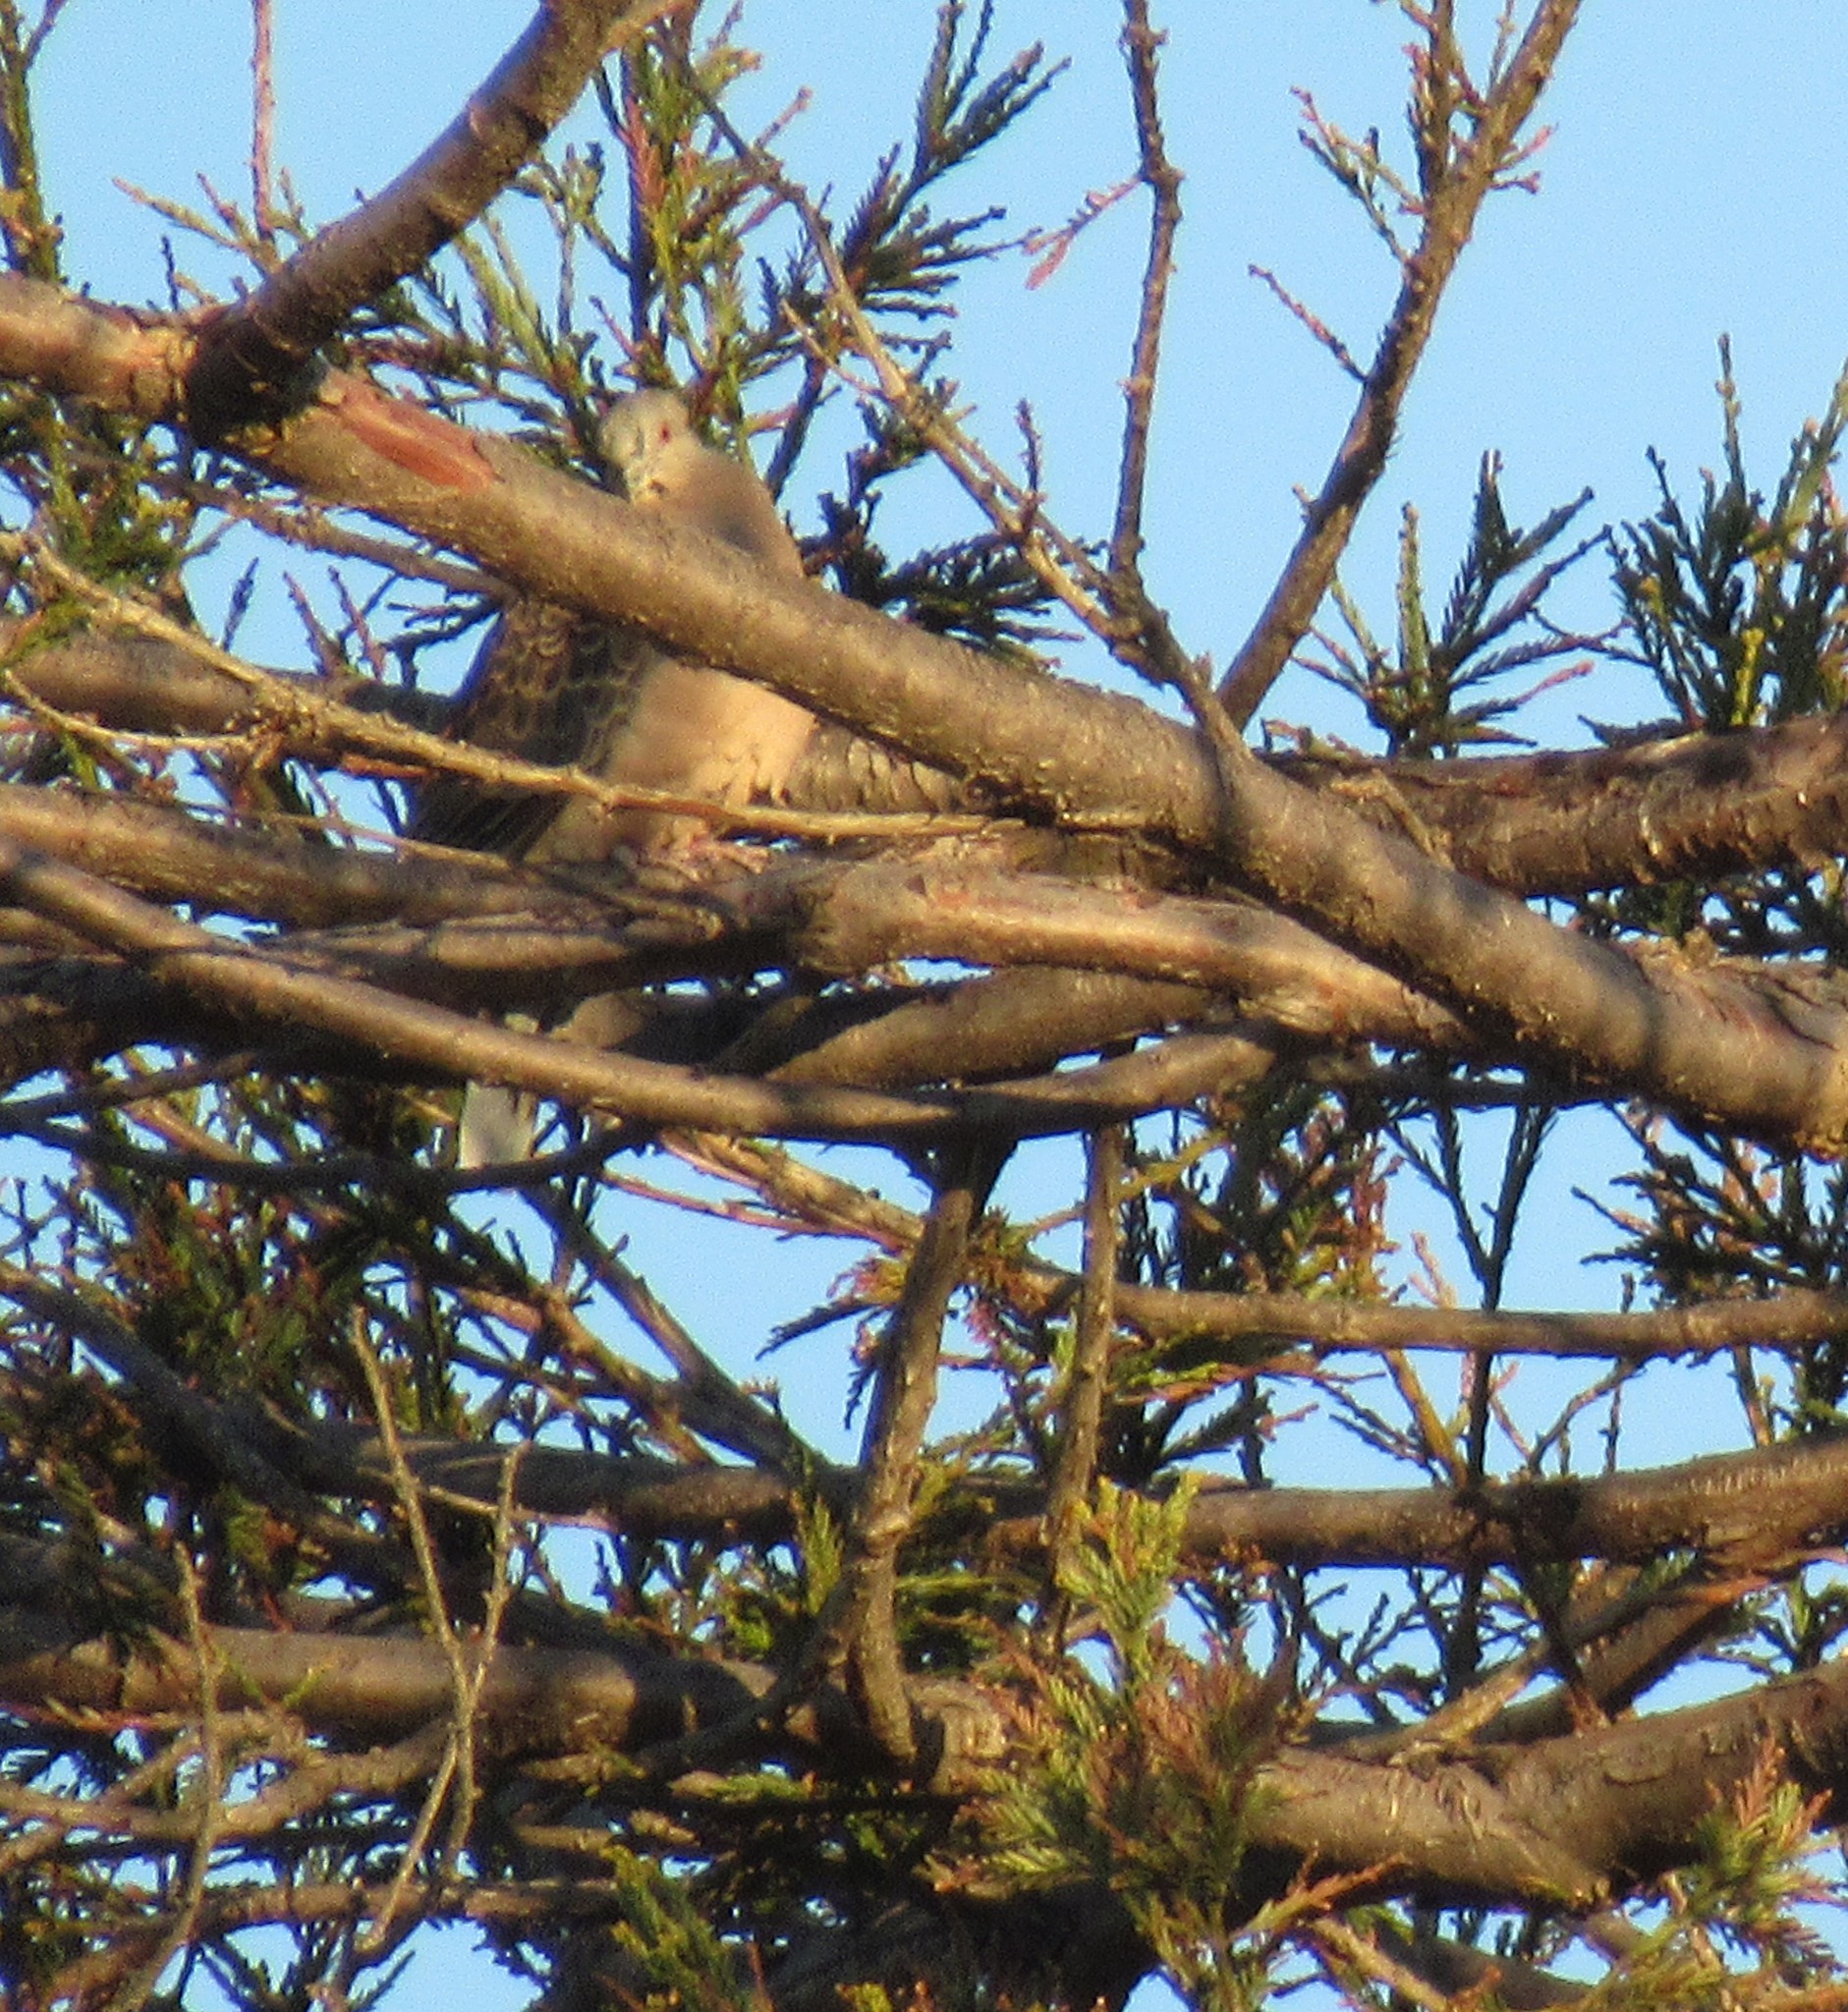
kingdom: Animalia
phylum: Chordata
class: Aves
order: Columbiformes
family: Columbidae
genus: Streptopelia
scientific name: Streptopelia orientalis
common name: Oriental turtle dove
